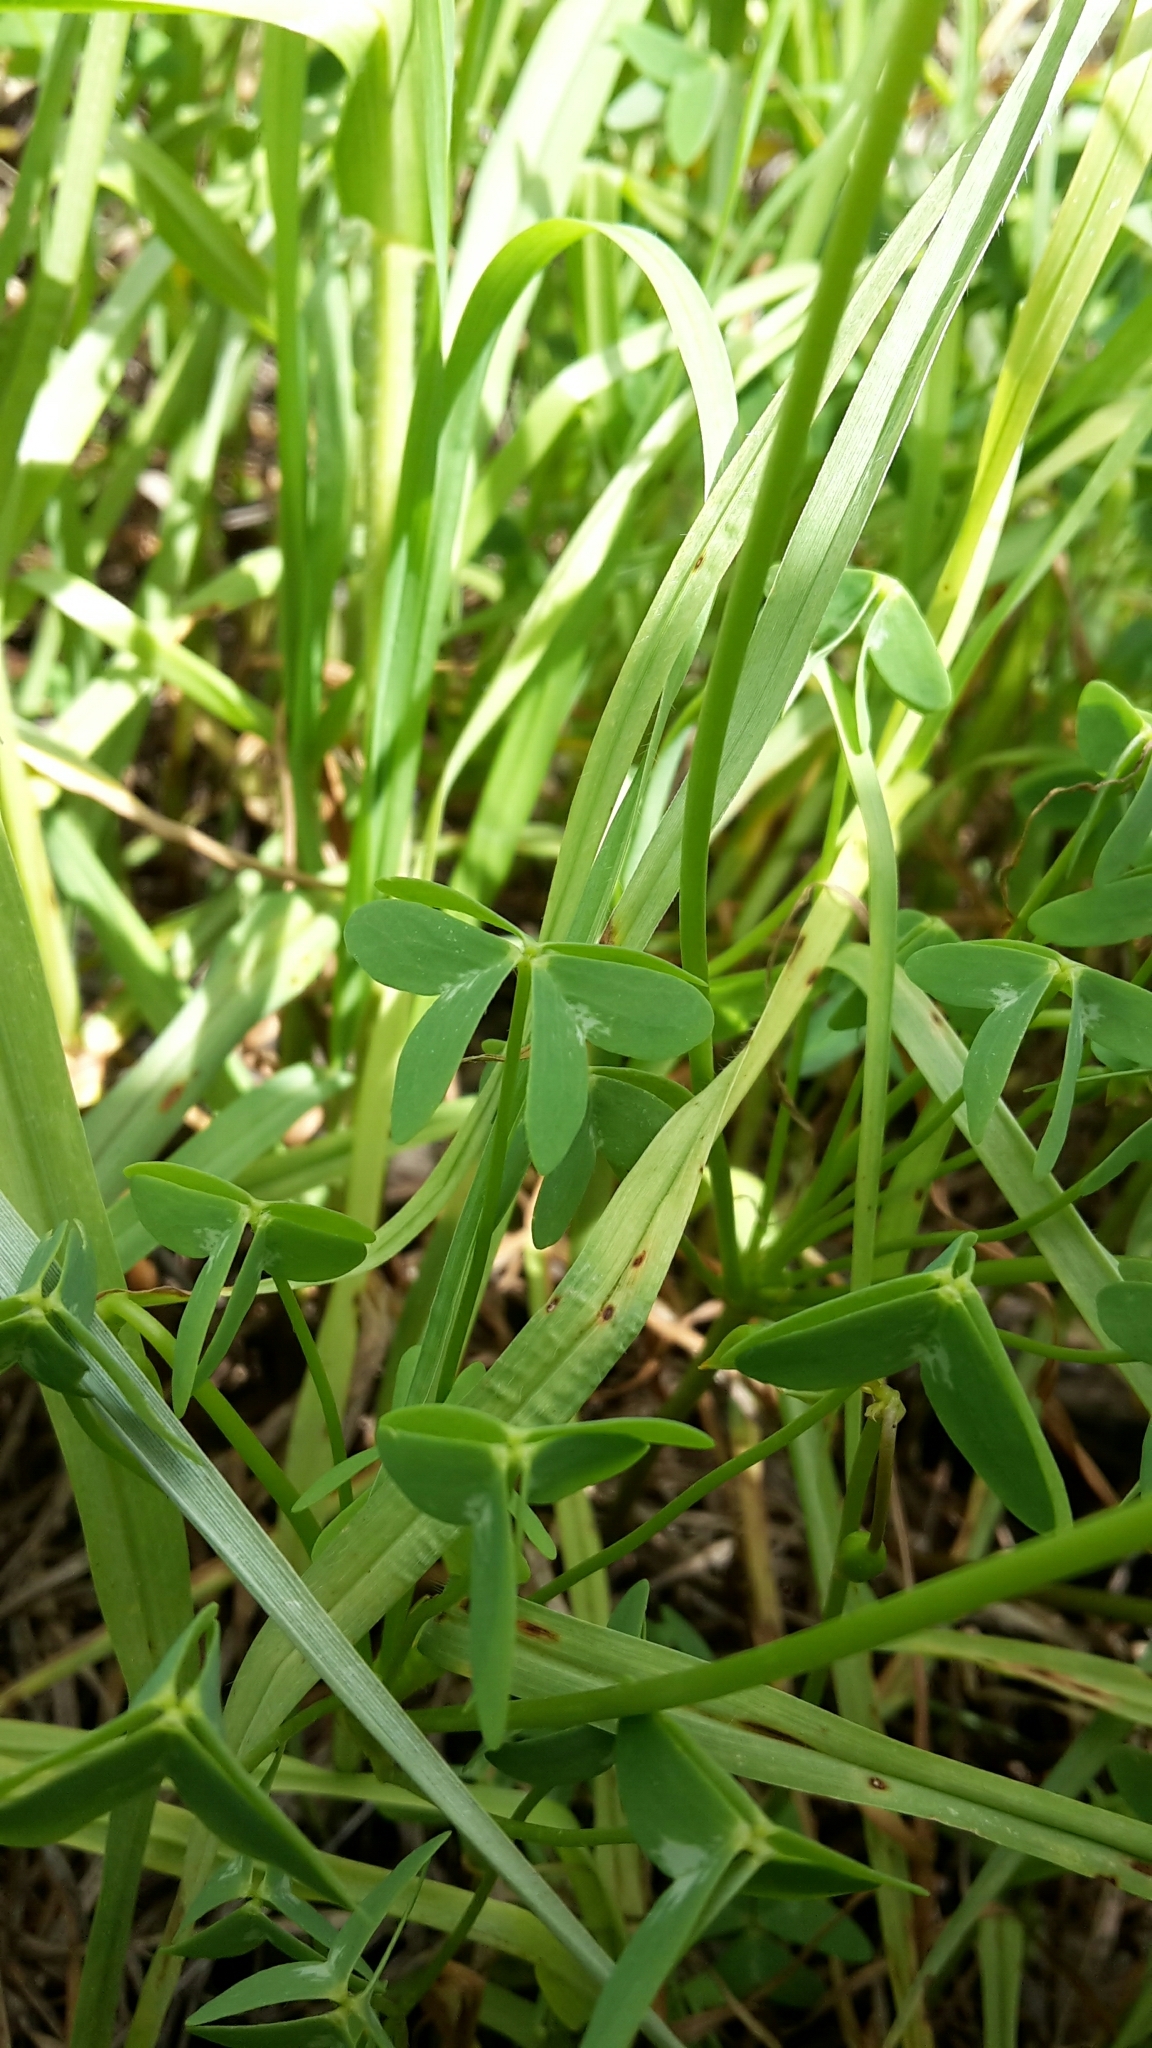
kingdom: Plantae
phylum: Tracheophyta
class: Magnoliopsida
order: Oxalidales
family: Oxalidaceae
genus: Oxalis
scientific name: Oxalis stellata
